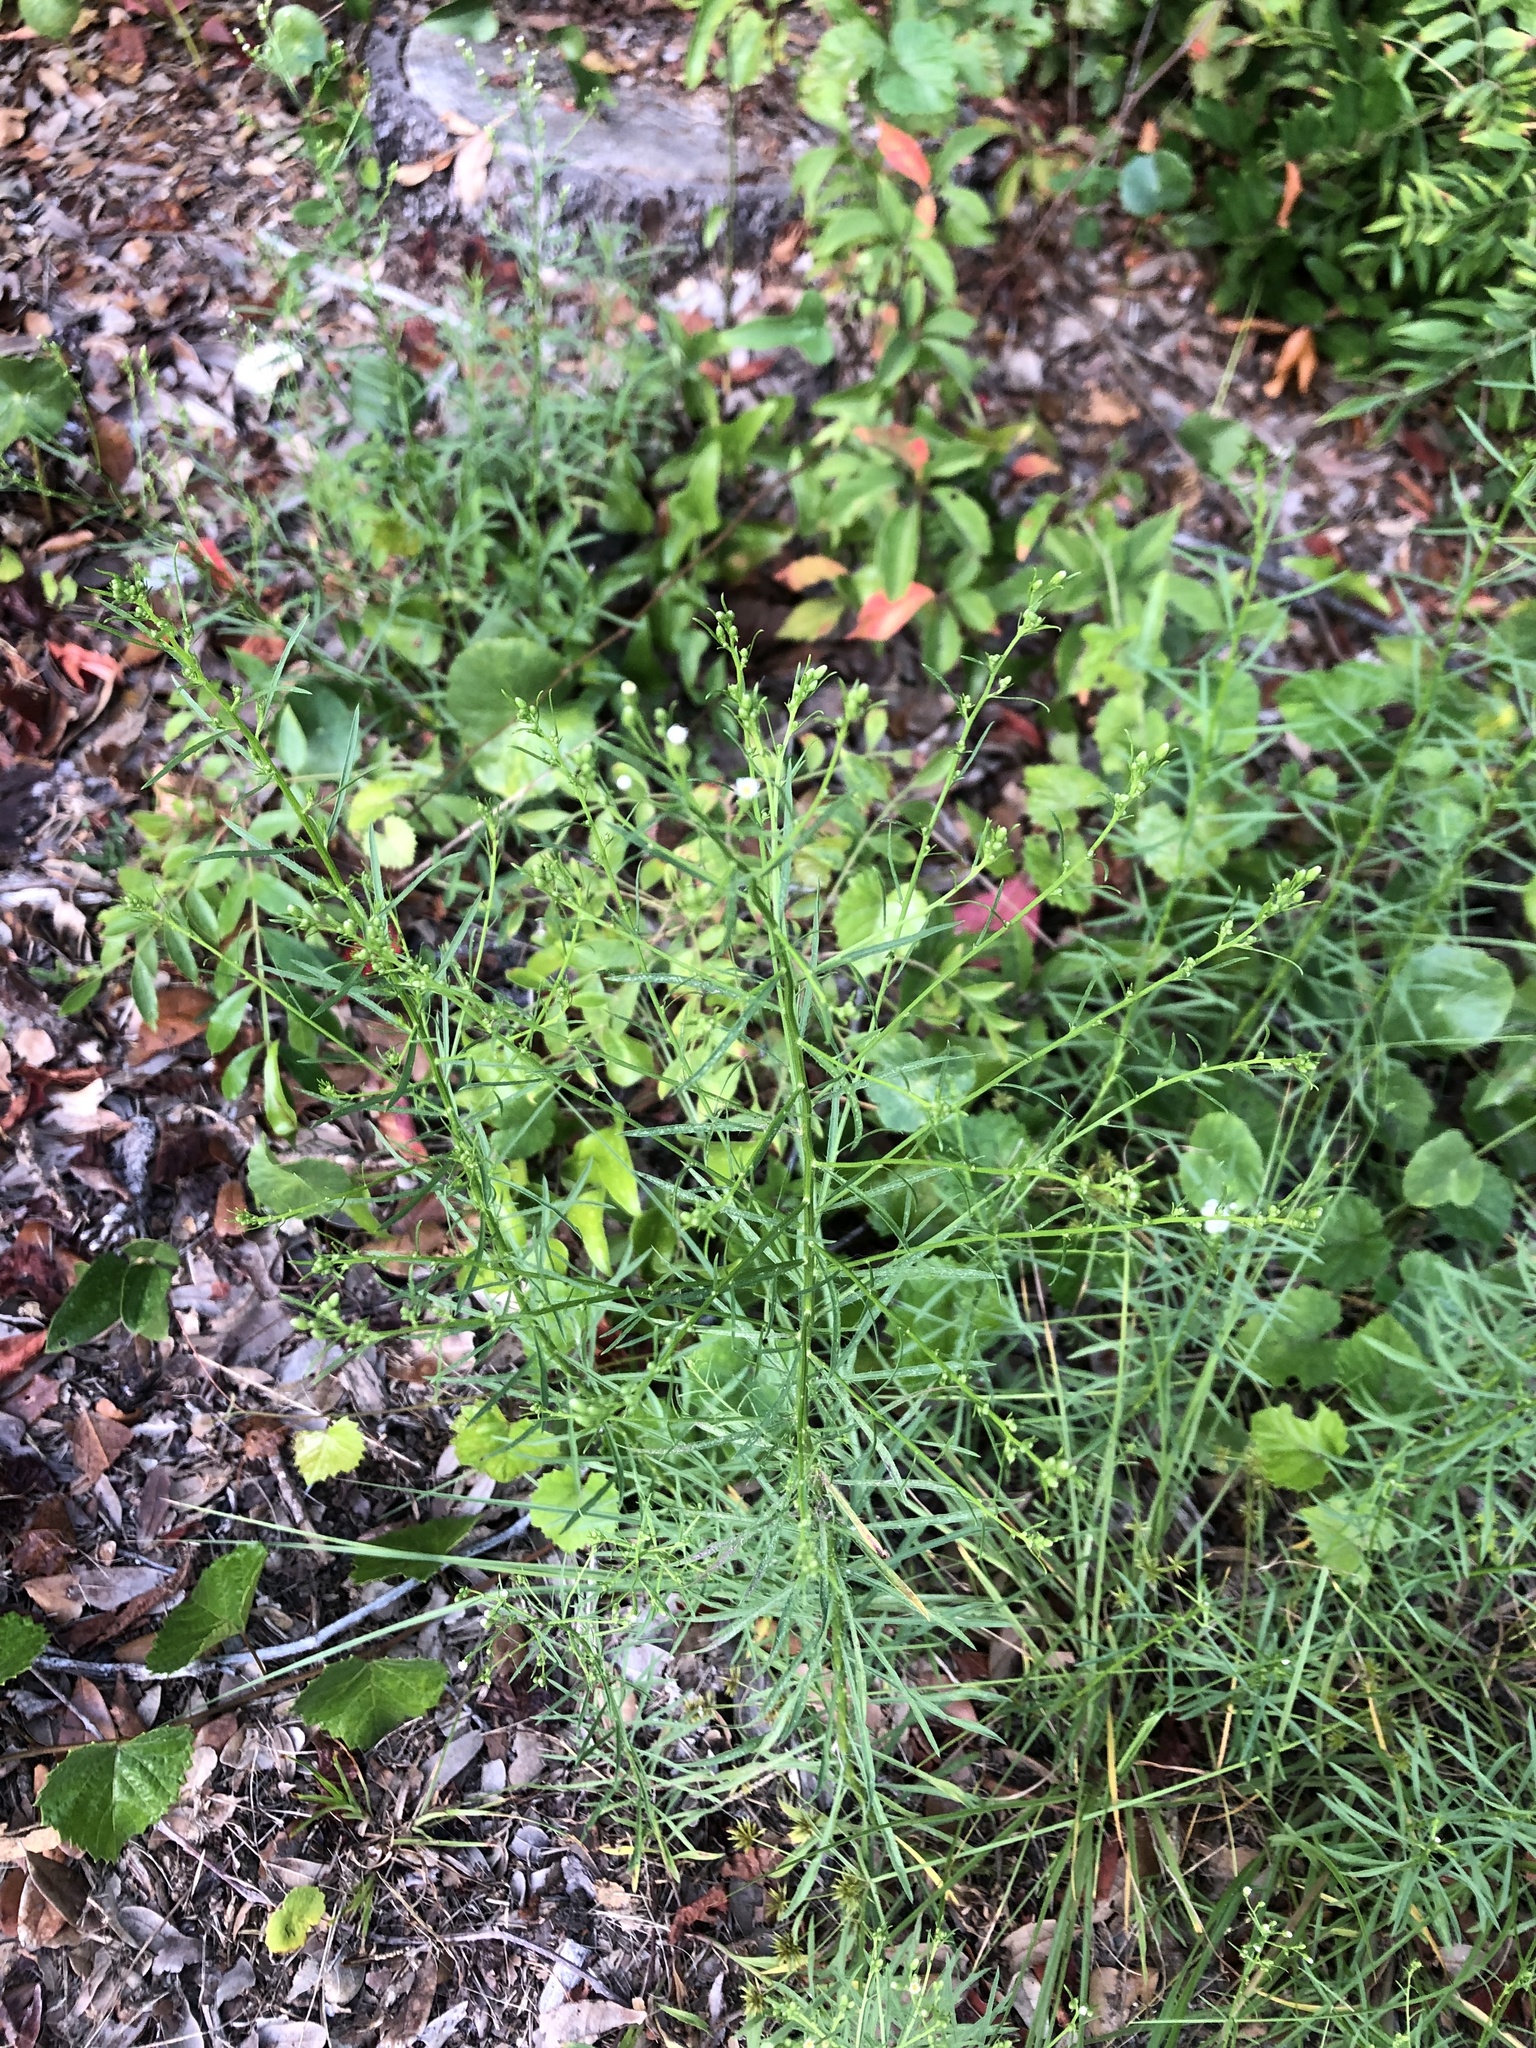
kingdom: Plantae
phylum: Tracheophyta
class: Magnoliopsida
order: Asterales
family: Asteraceae
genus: Erigeron
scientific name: Erigeron canadensis
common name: Canadian fleabane
